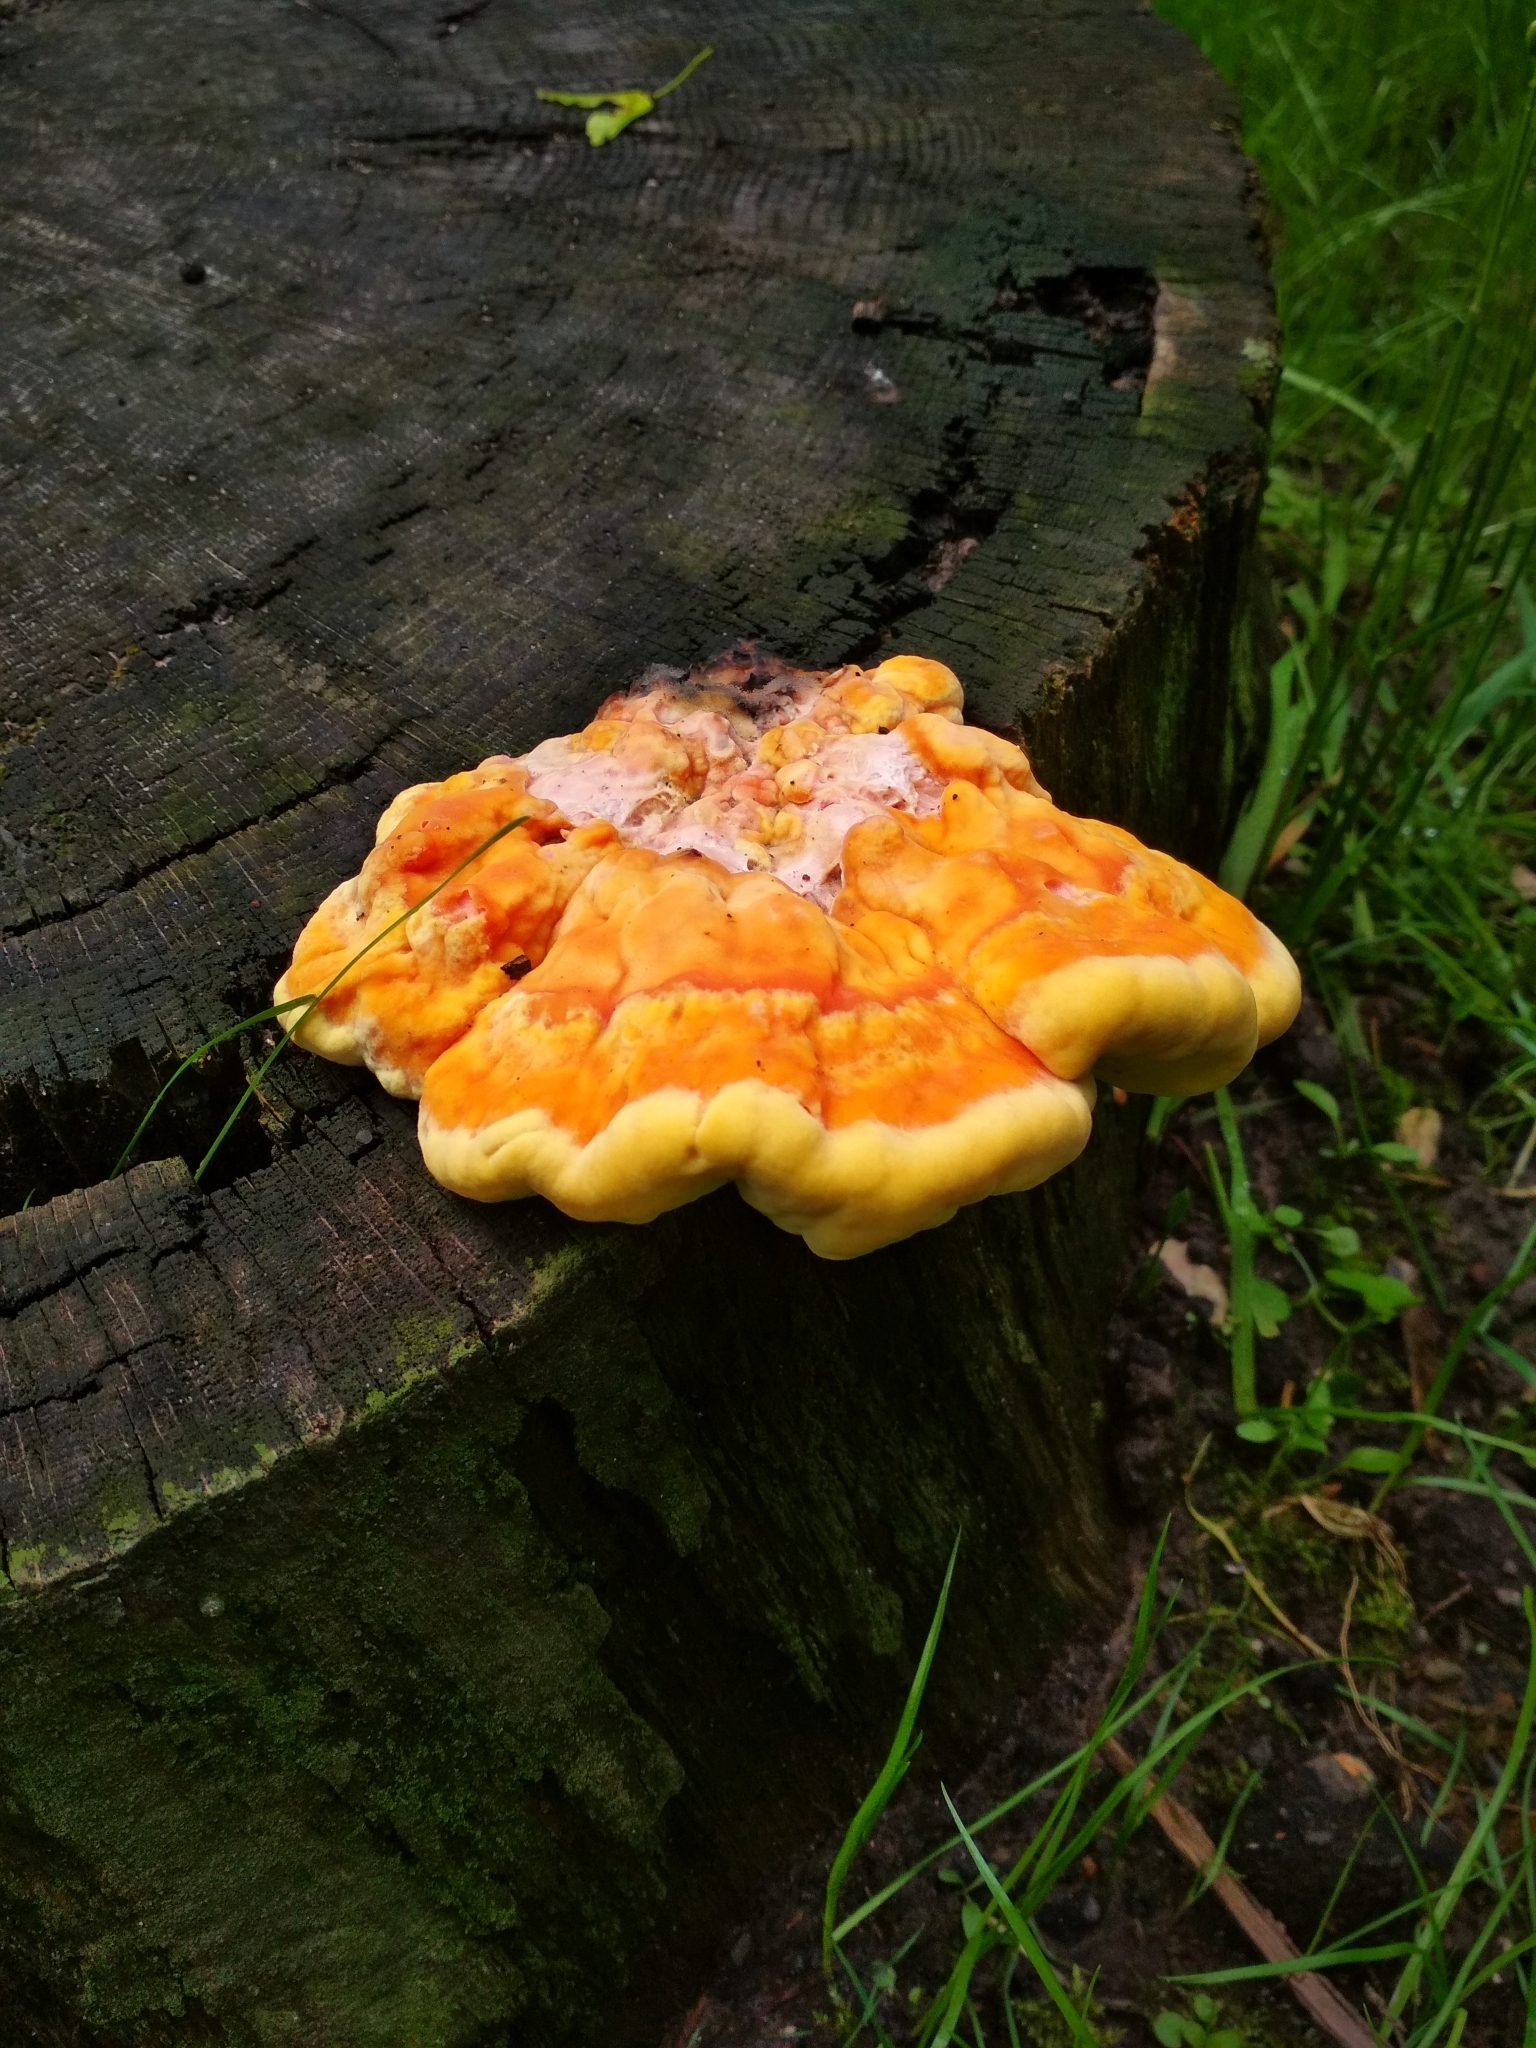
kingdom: Fungi
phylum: Basidiomycota
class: Agaricomycetes
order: Polyporales
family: Laetiporaceae
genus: Laetiporus
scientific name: Laetiporus sulphureus
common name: Chicken of the woods
